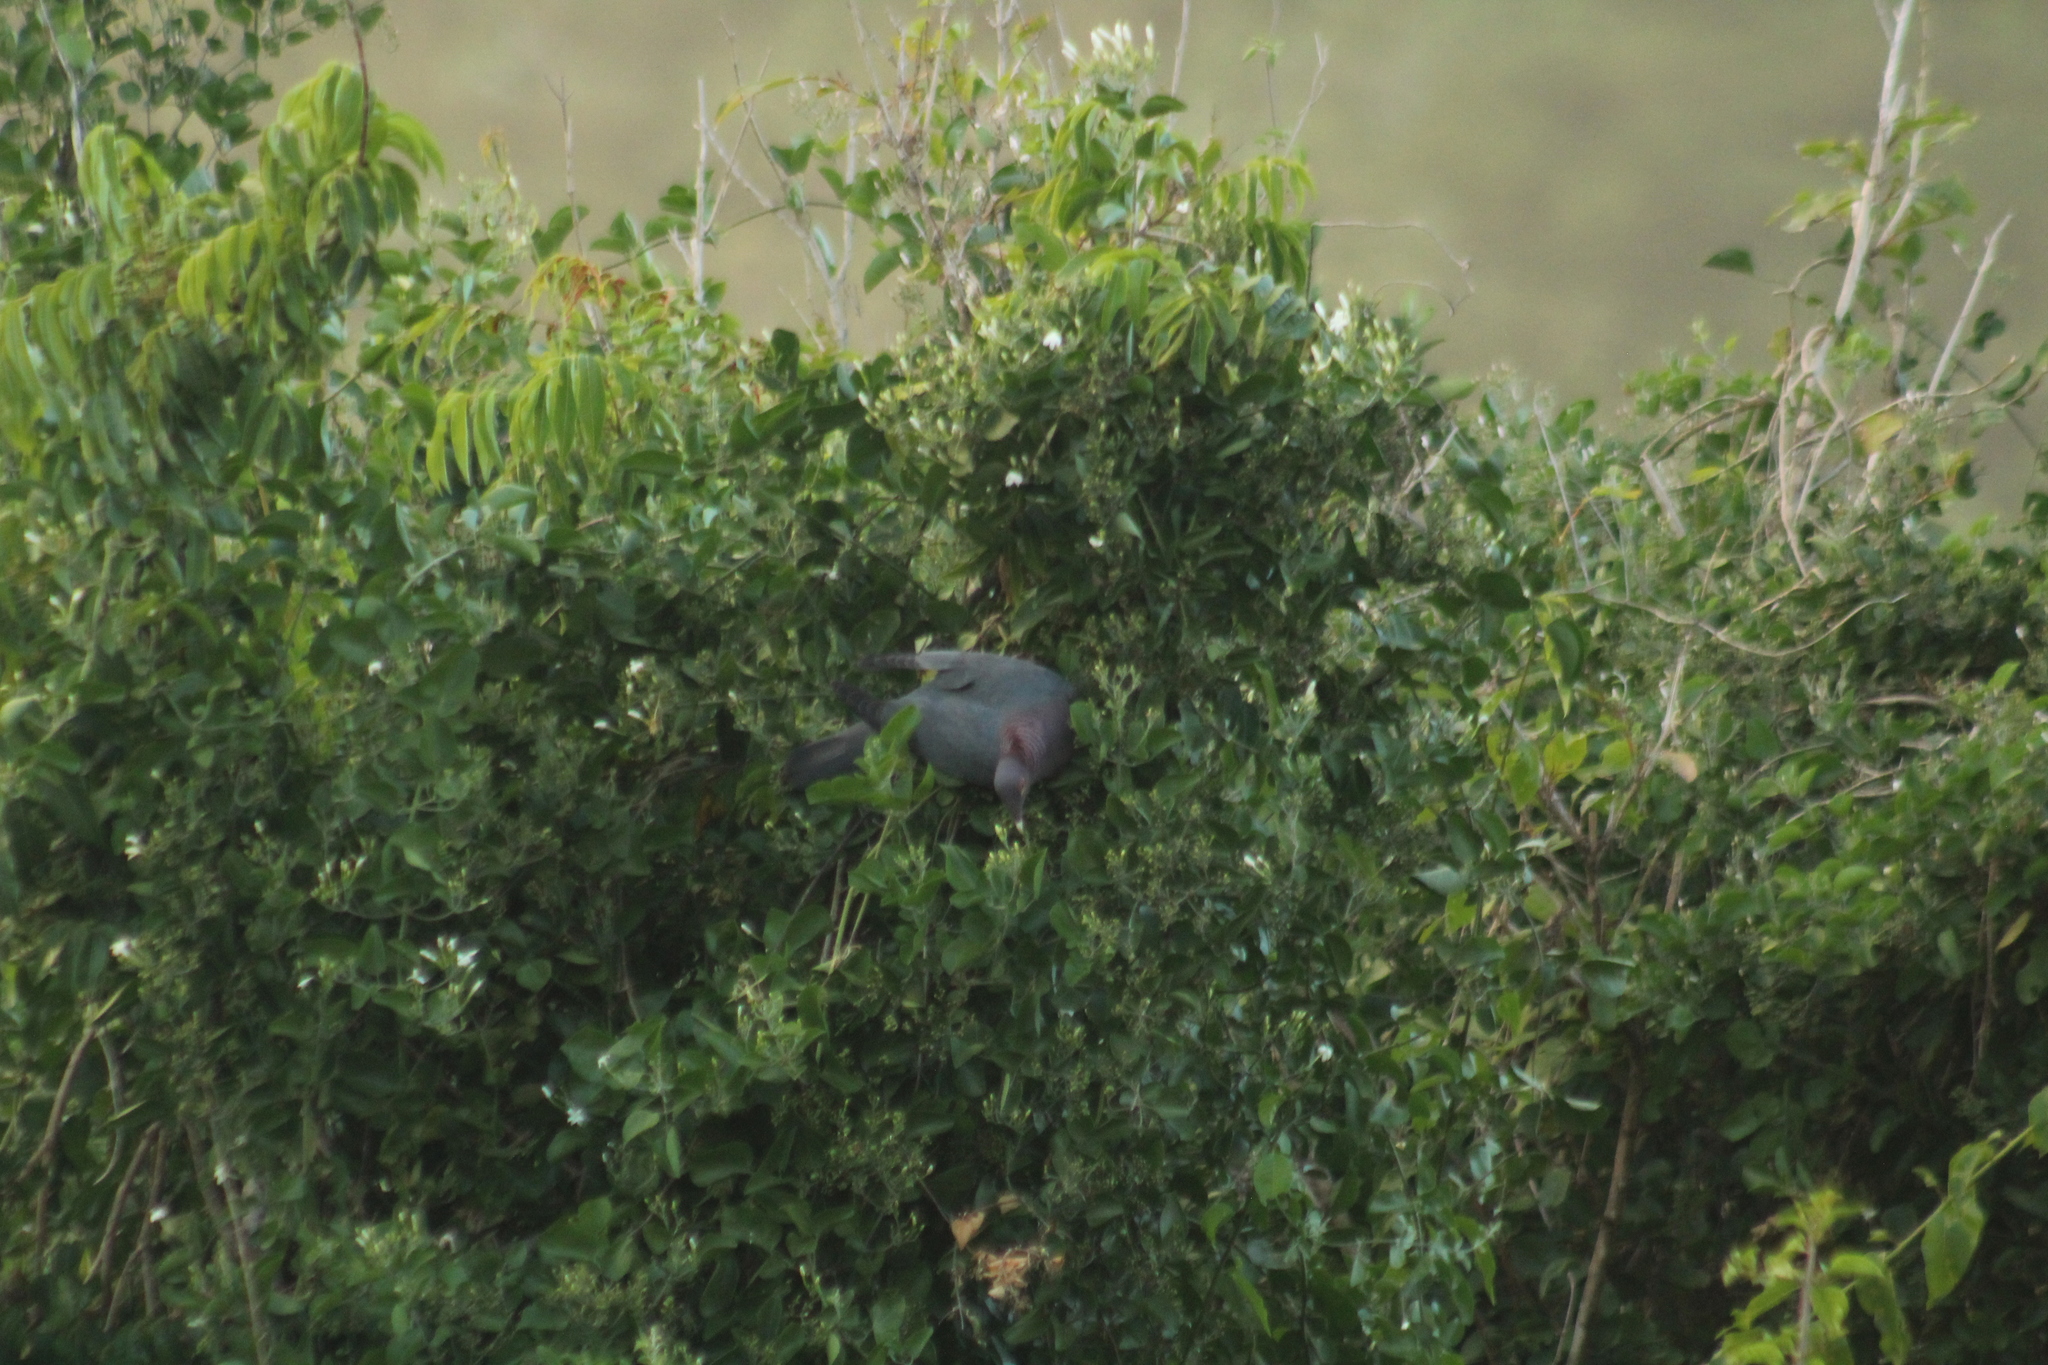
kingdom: Animalia
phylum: Chordata
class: Aves
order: Columbiformes
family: Columbidae
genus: Patagioenas
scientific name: Patagioenas squamosa
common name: Scaly-naped pigeon
